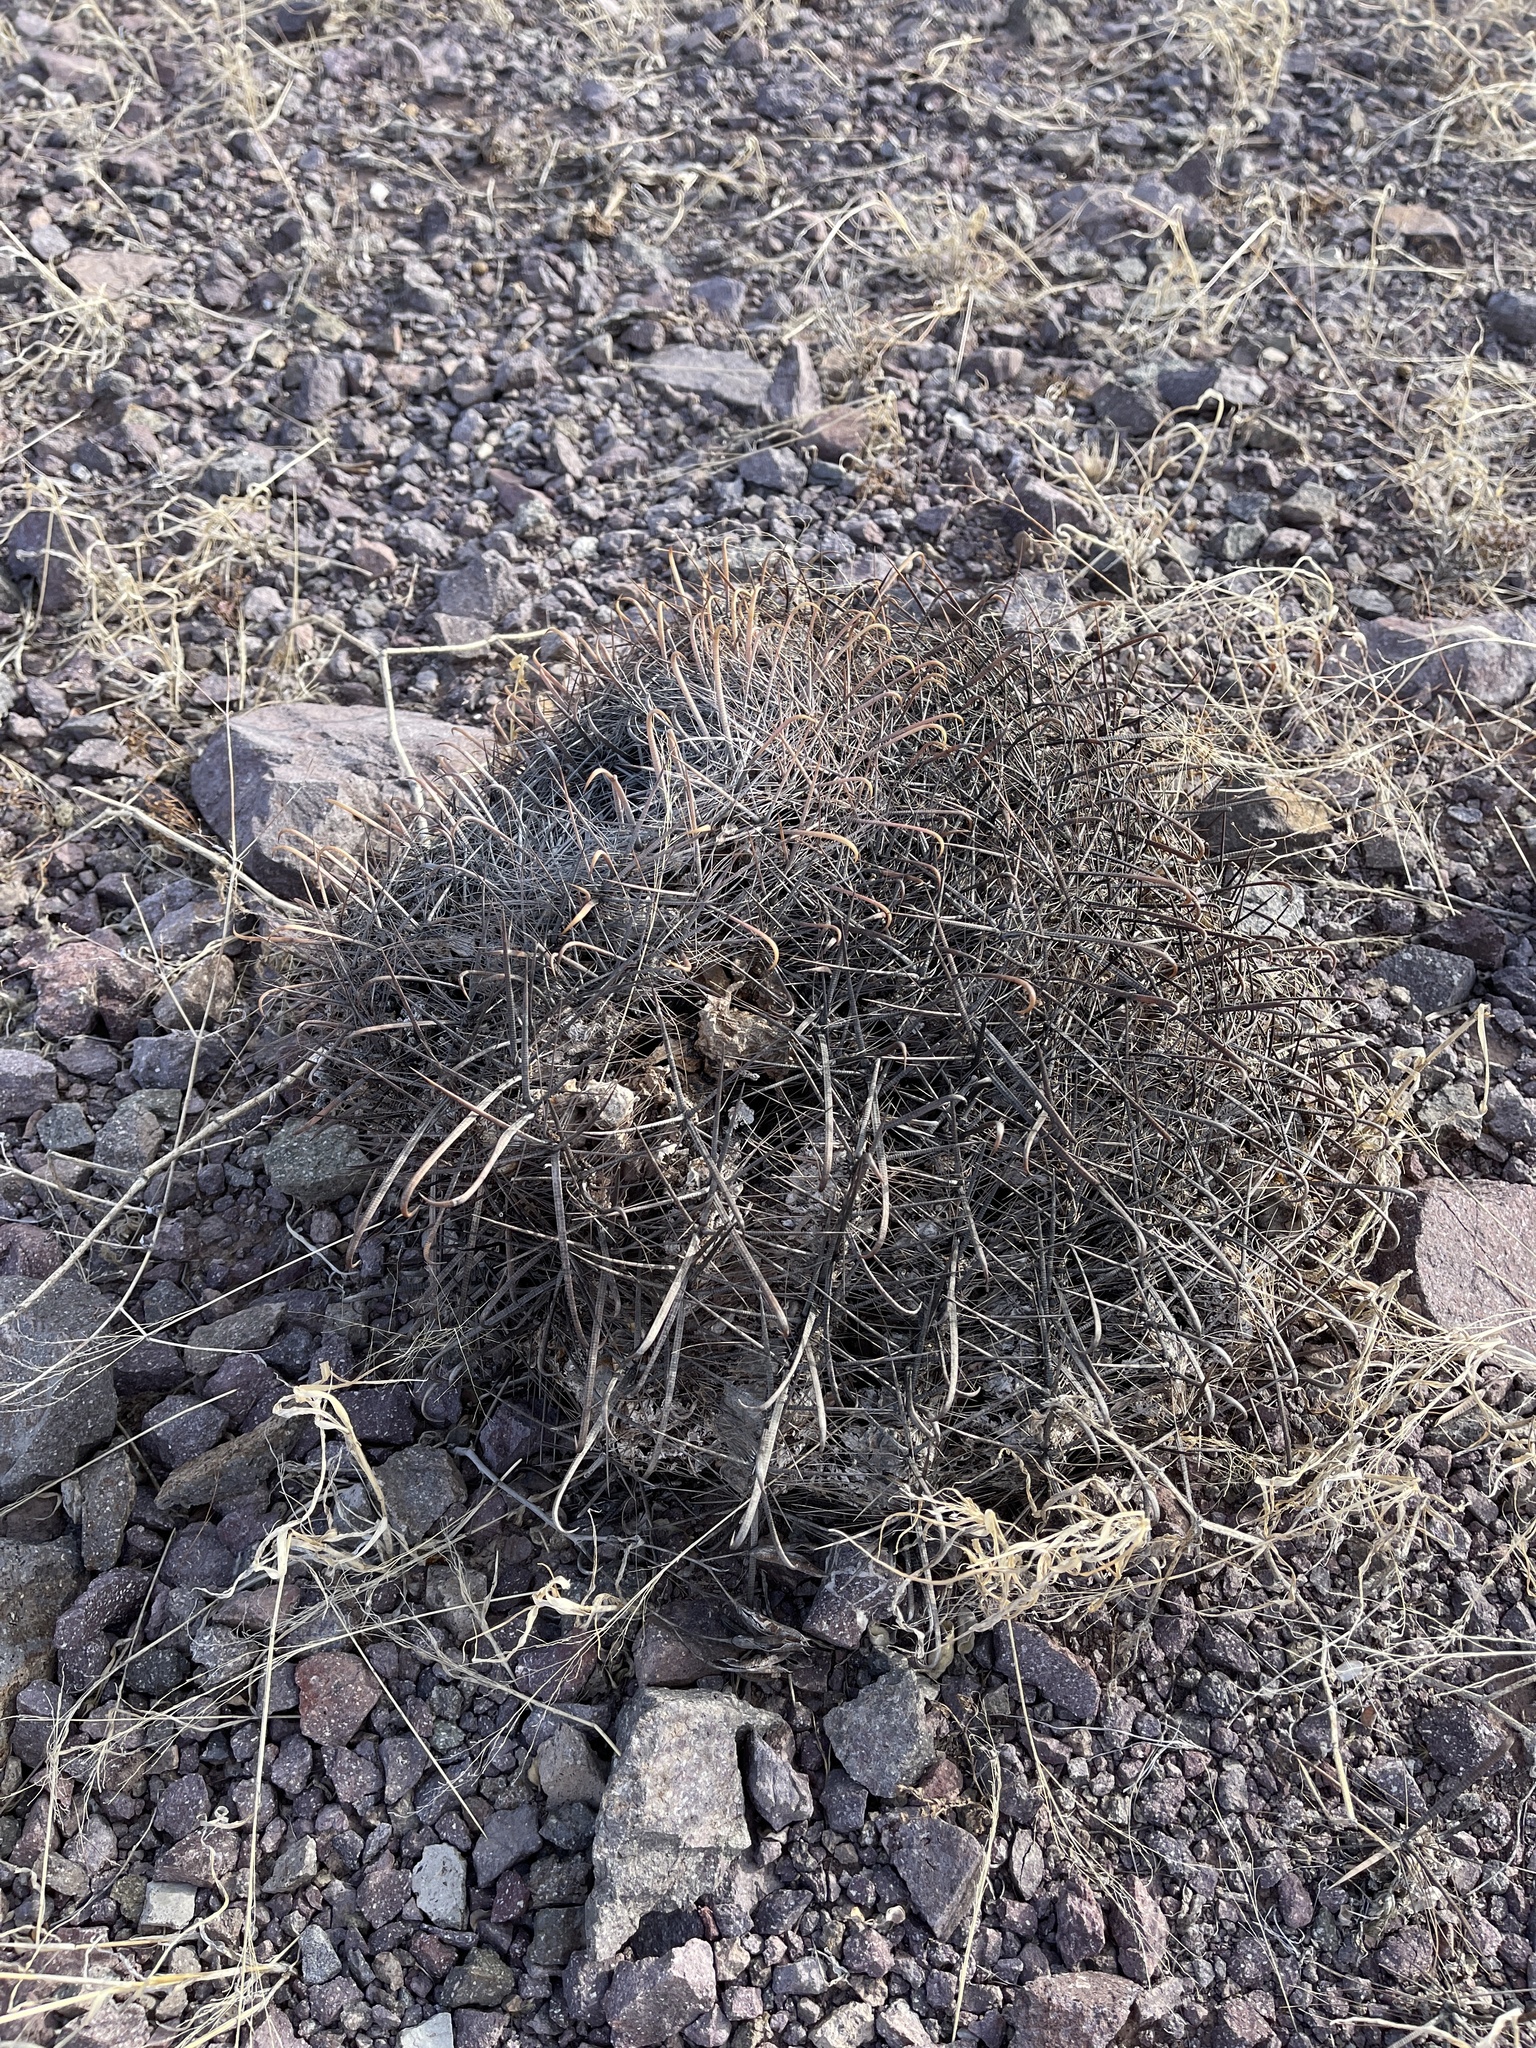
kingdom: Plantae
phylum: Tracheophyta
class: Magnoliopsida
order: Caryophyllales
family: Cactaceae
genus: Ferocactus
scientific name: Ferocactus wislizeni
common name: Candy barrel cactus
